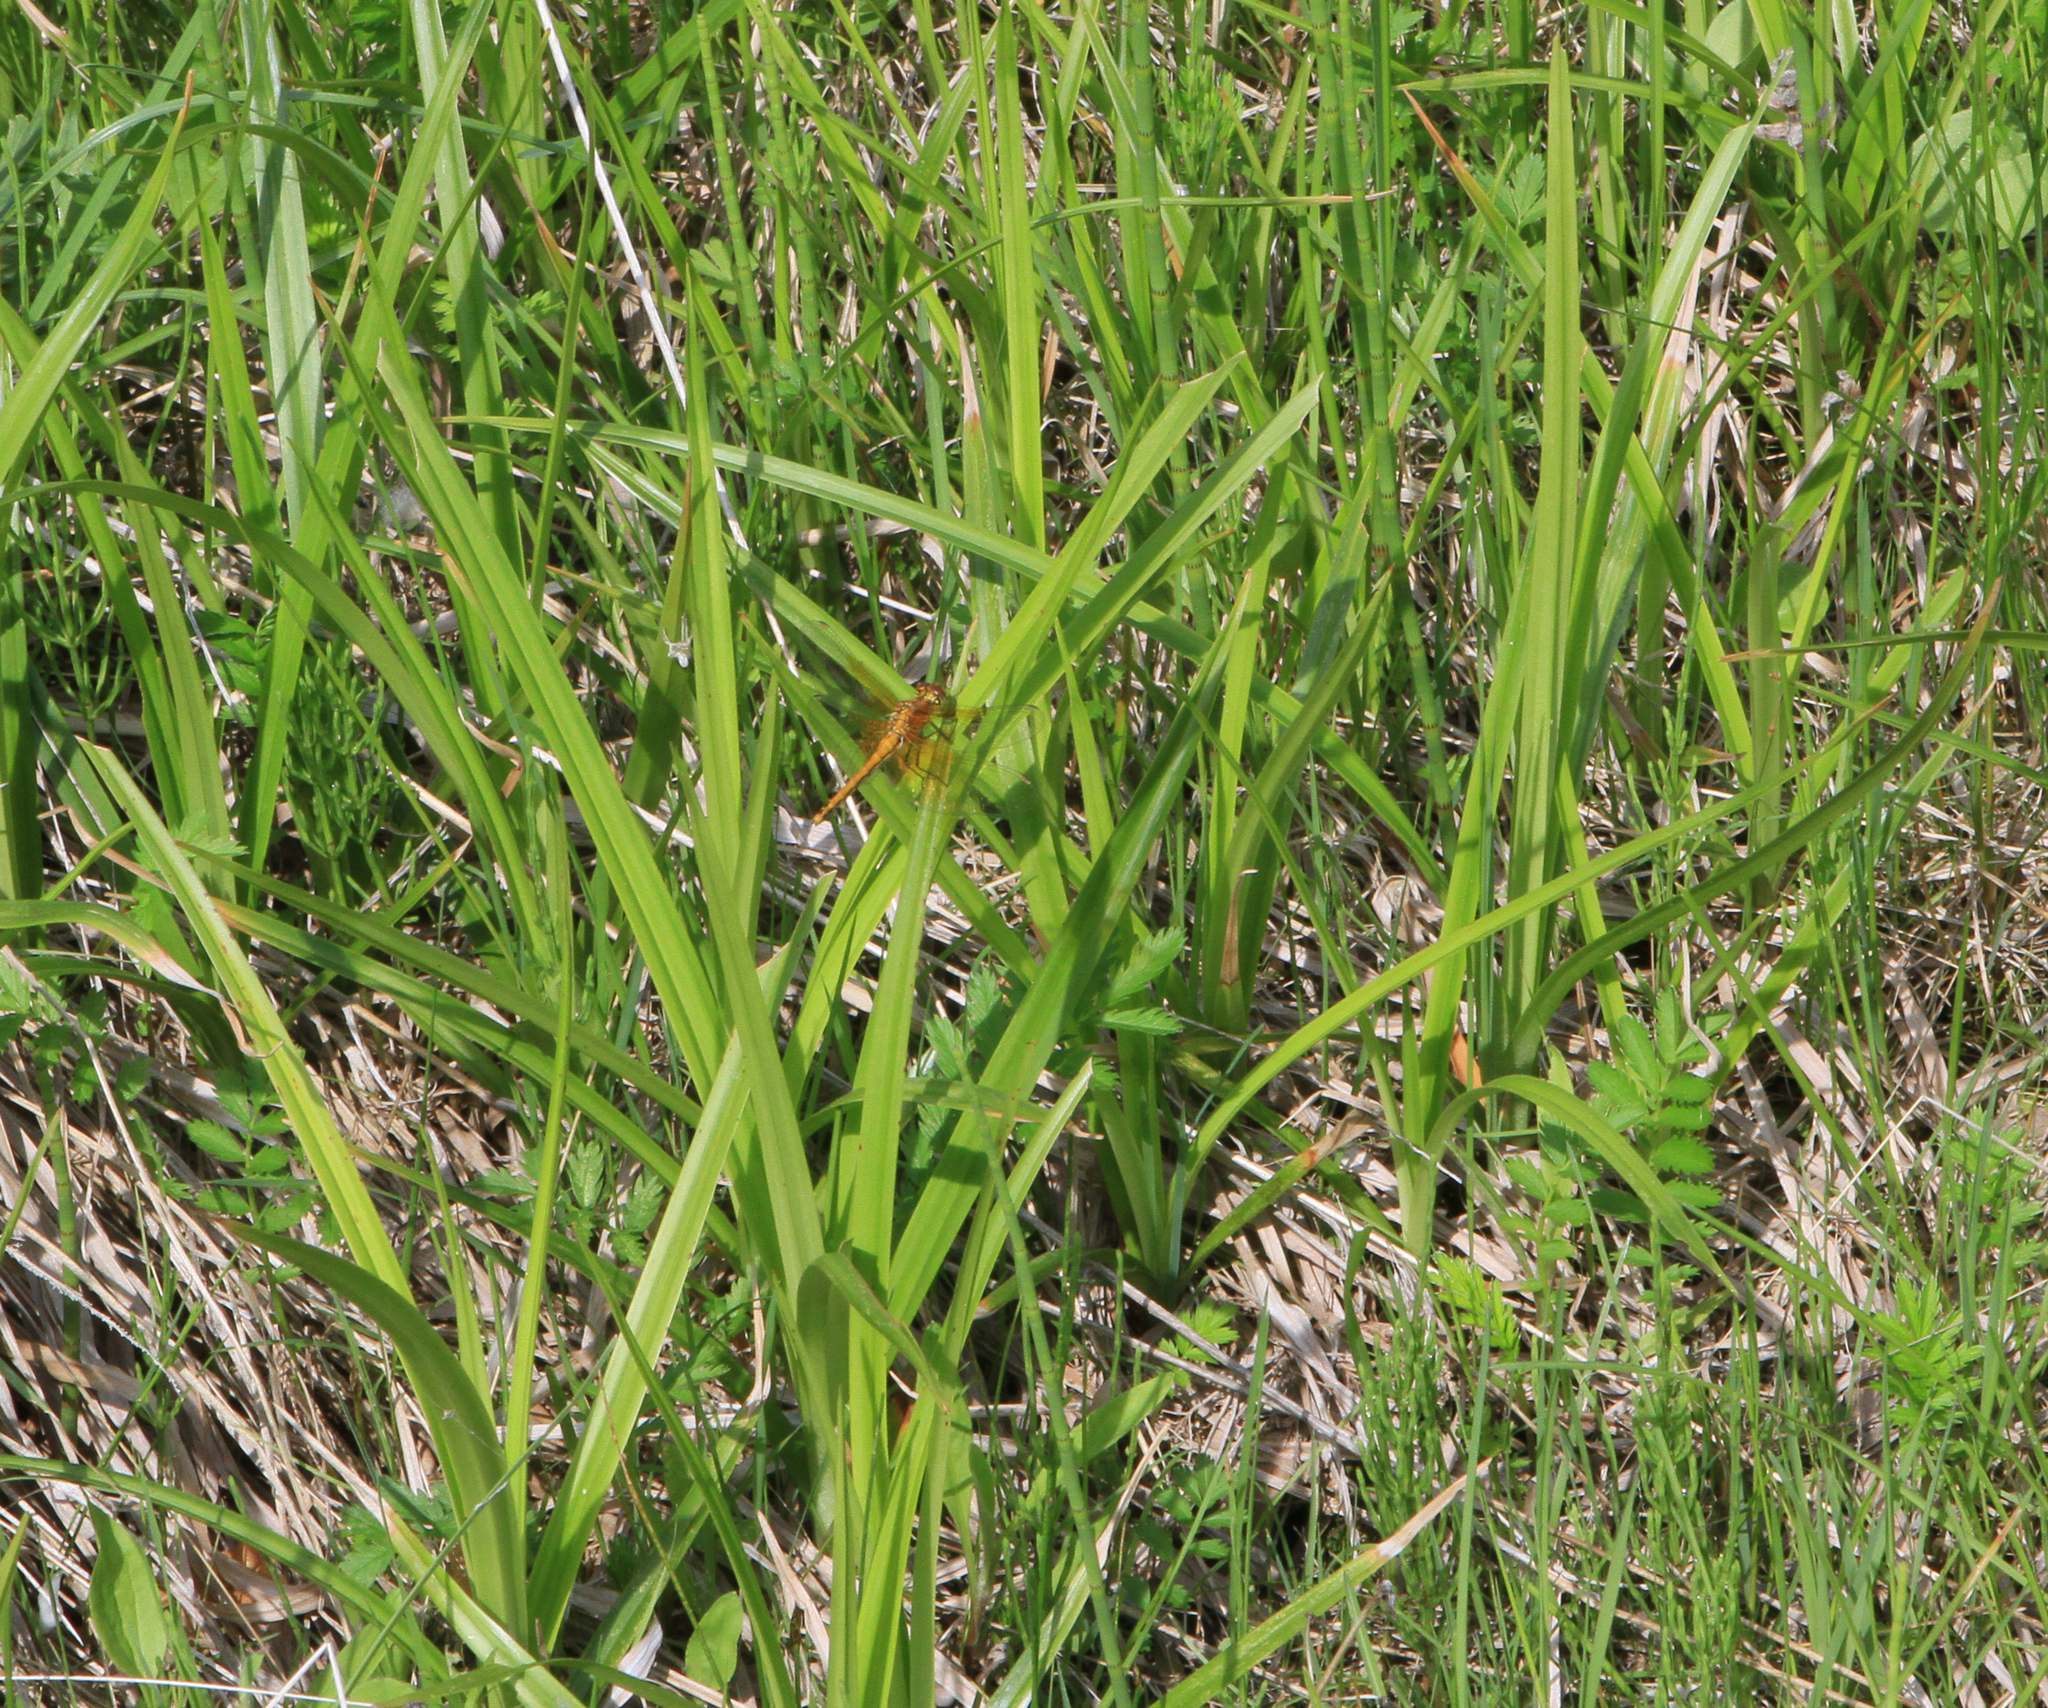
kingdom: Animalia
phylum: Arthropoda
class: Insecta
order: Odonata
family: Libellulidae
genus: Sympetrum
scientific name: Sympetrum flaveolum
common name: Yellow-winged darter
